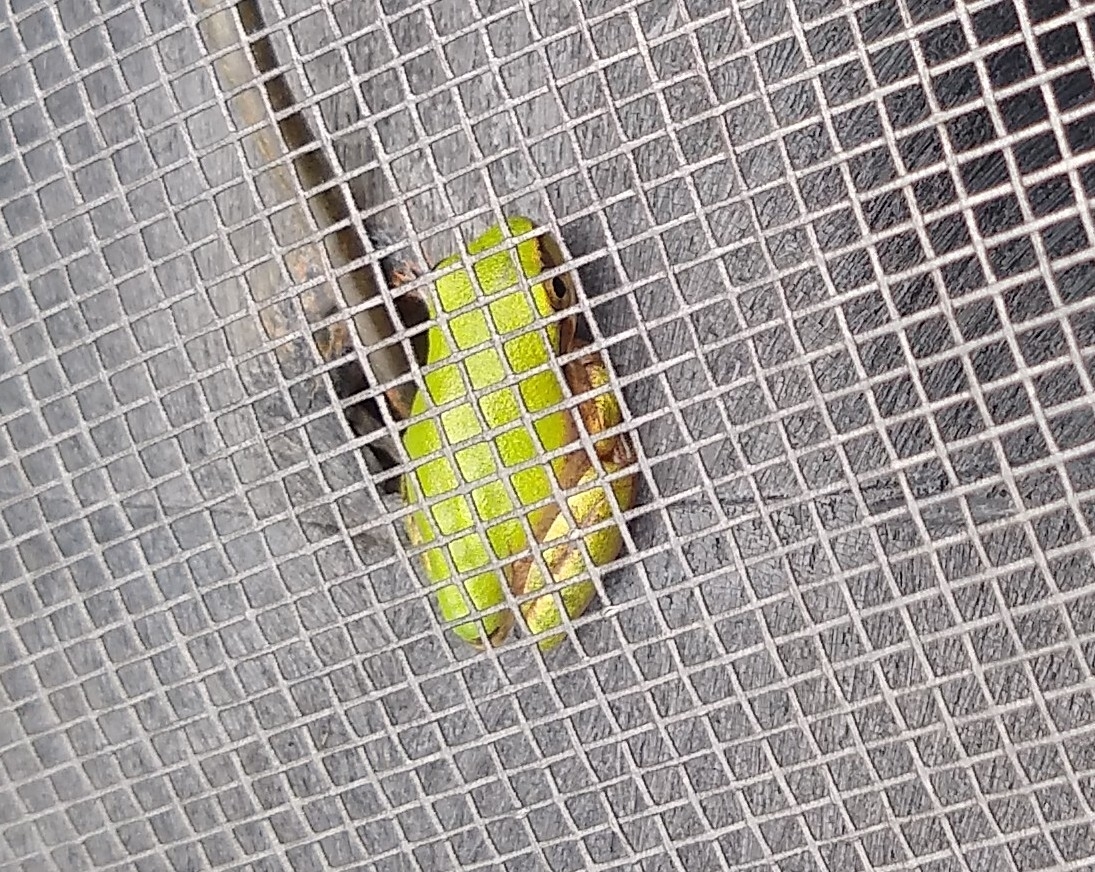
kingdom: Animalia
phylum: Chordata
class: Amphibia
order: Anura
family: Hylidae
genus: Dryophytes
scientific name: Dryophytes squirellus
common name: Squirrel treefrog
